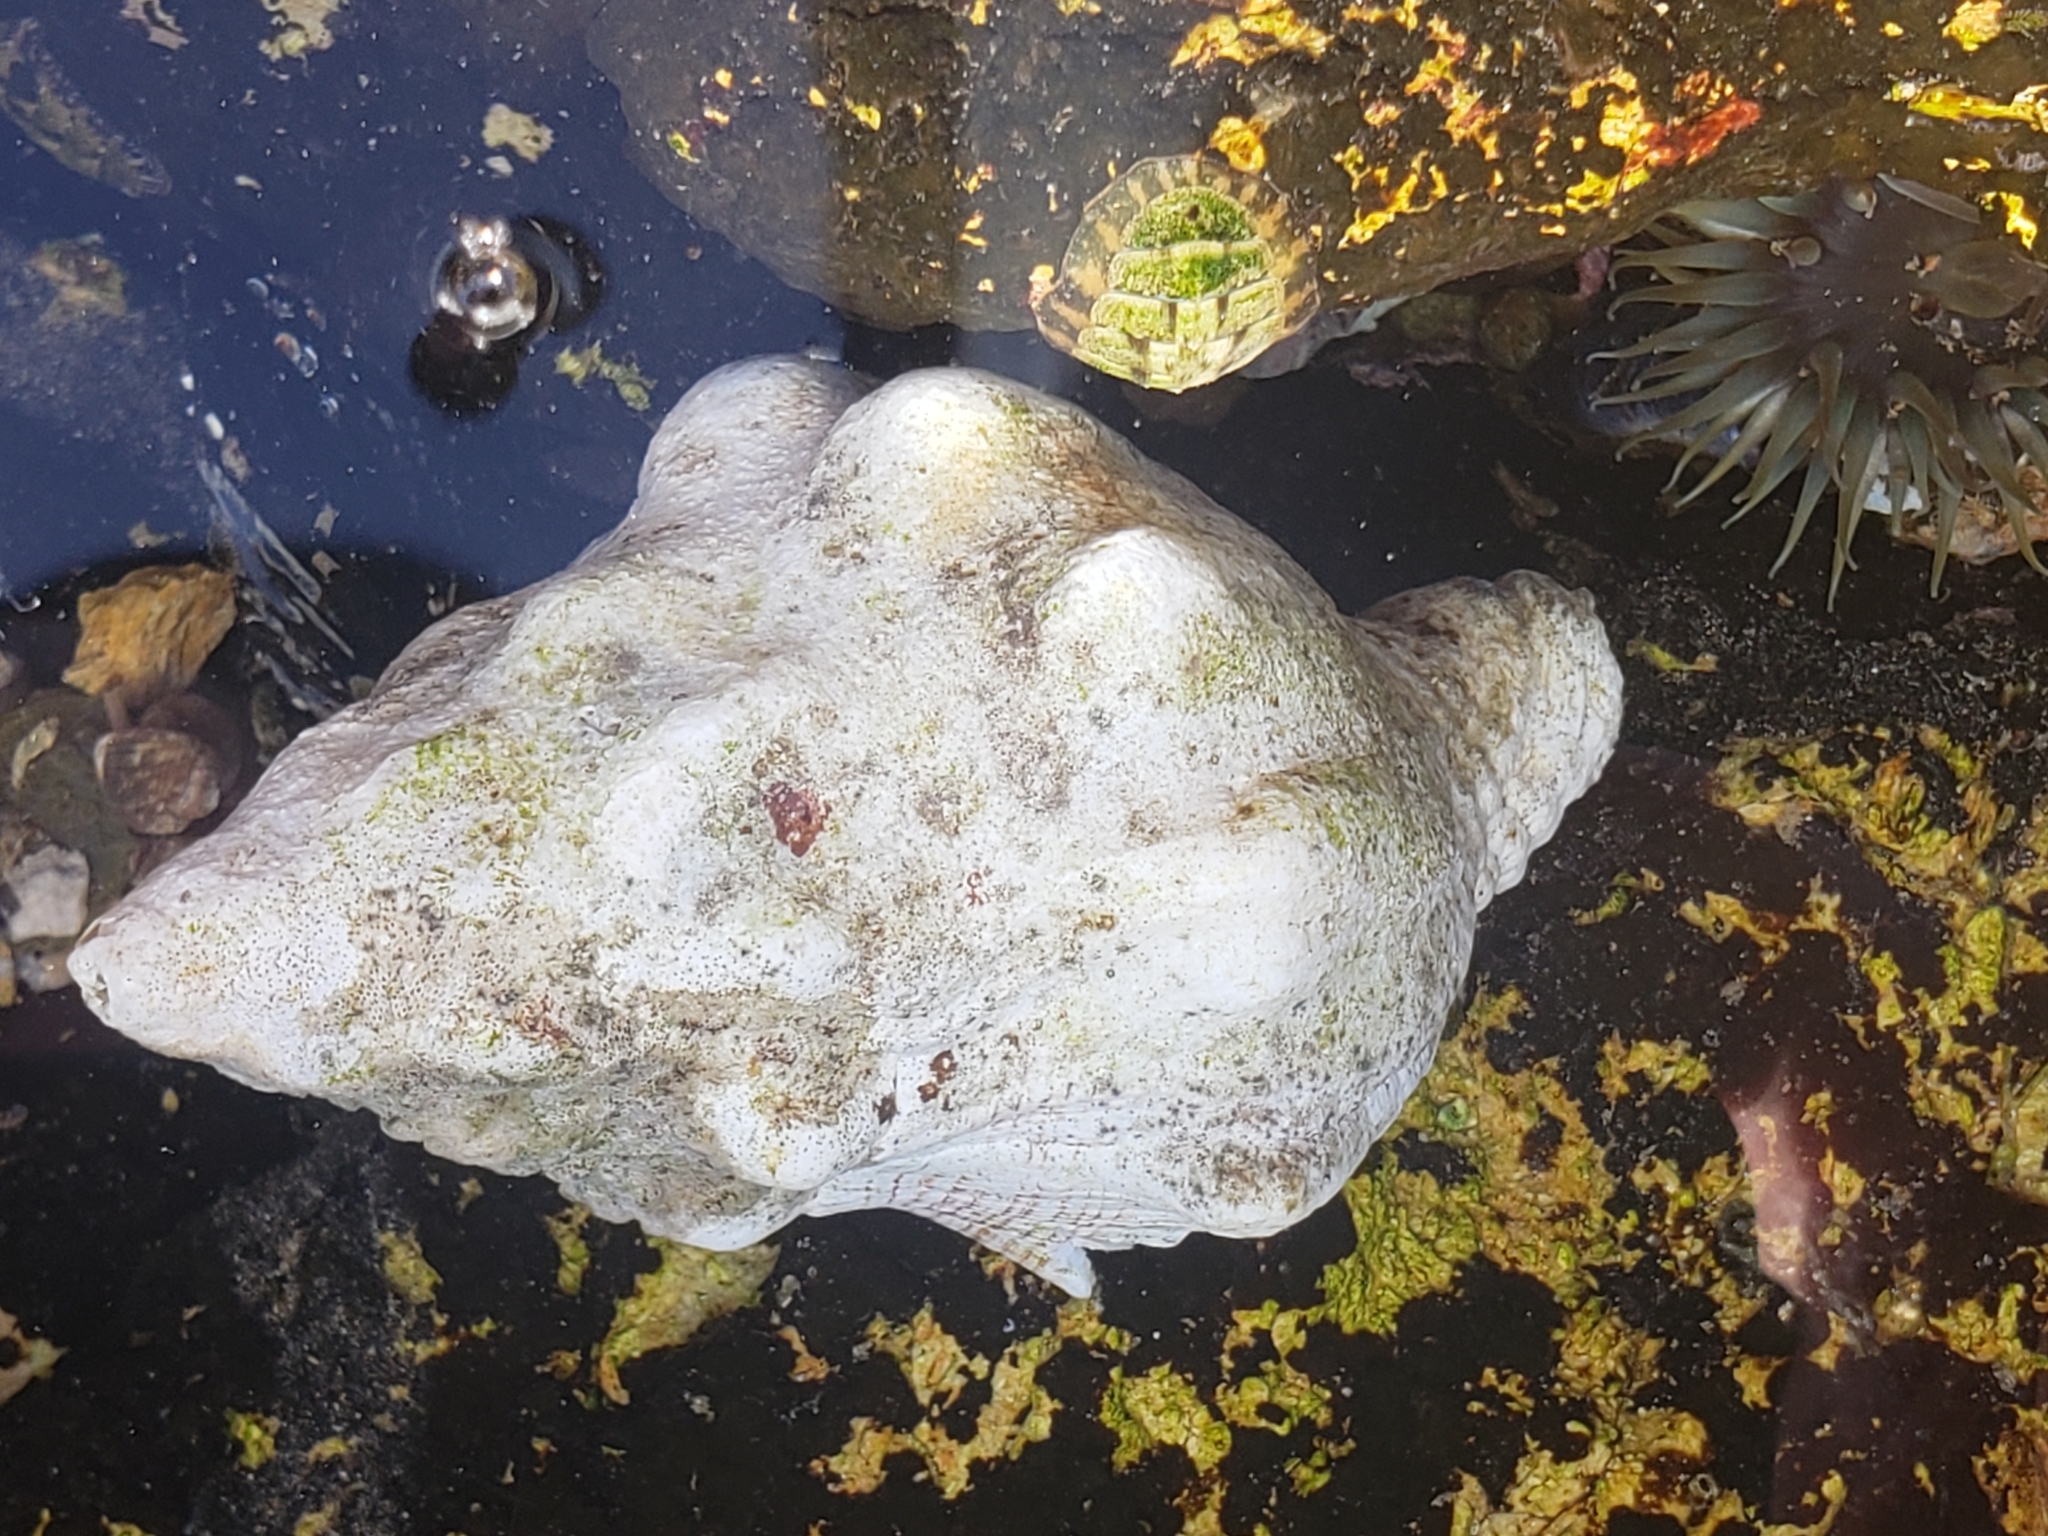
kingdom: Animalia
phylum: Mollusca
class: Gastropoda
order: Neogastropoda
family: Austrosiphonidae
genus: Kelletia
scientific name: Kelletia kelletii
